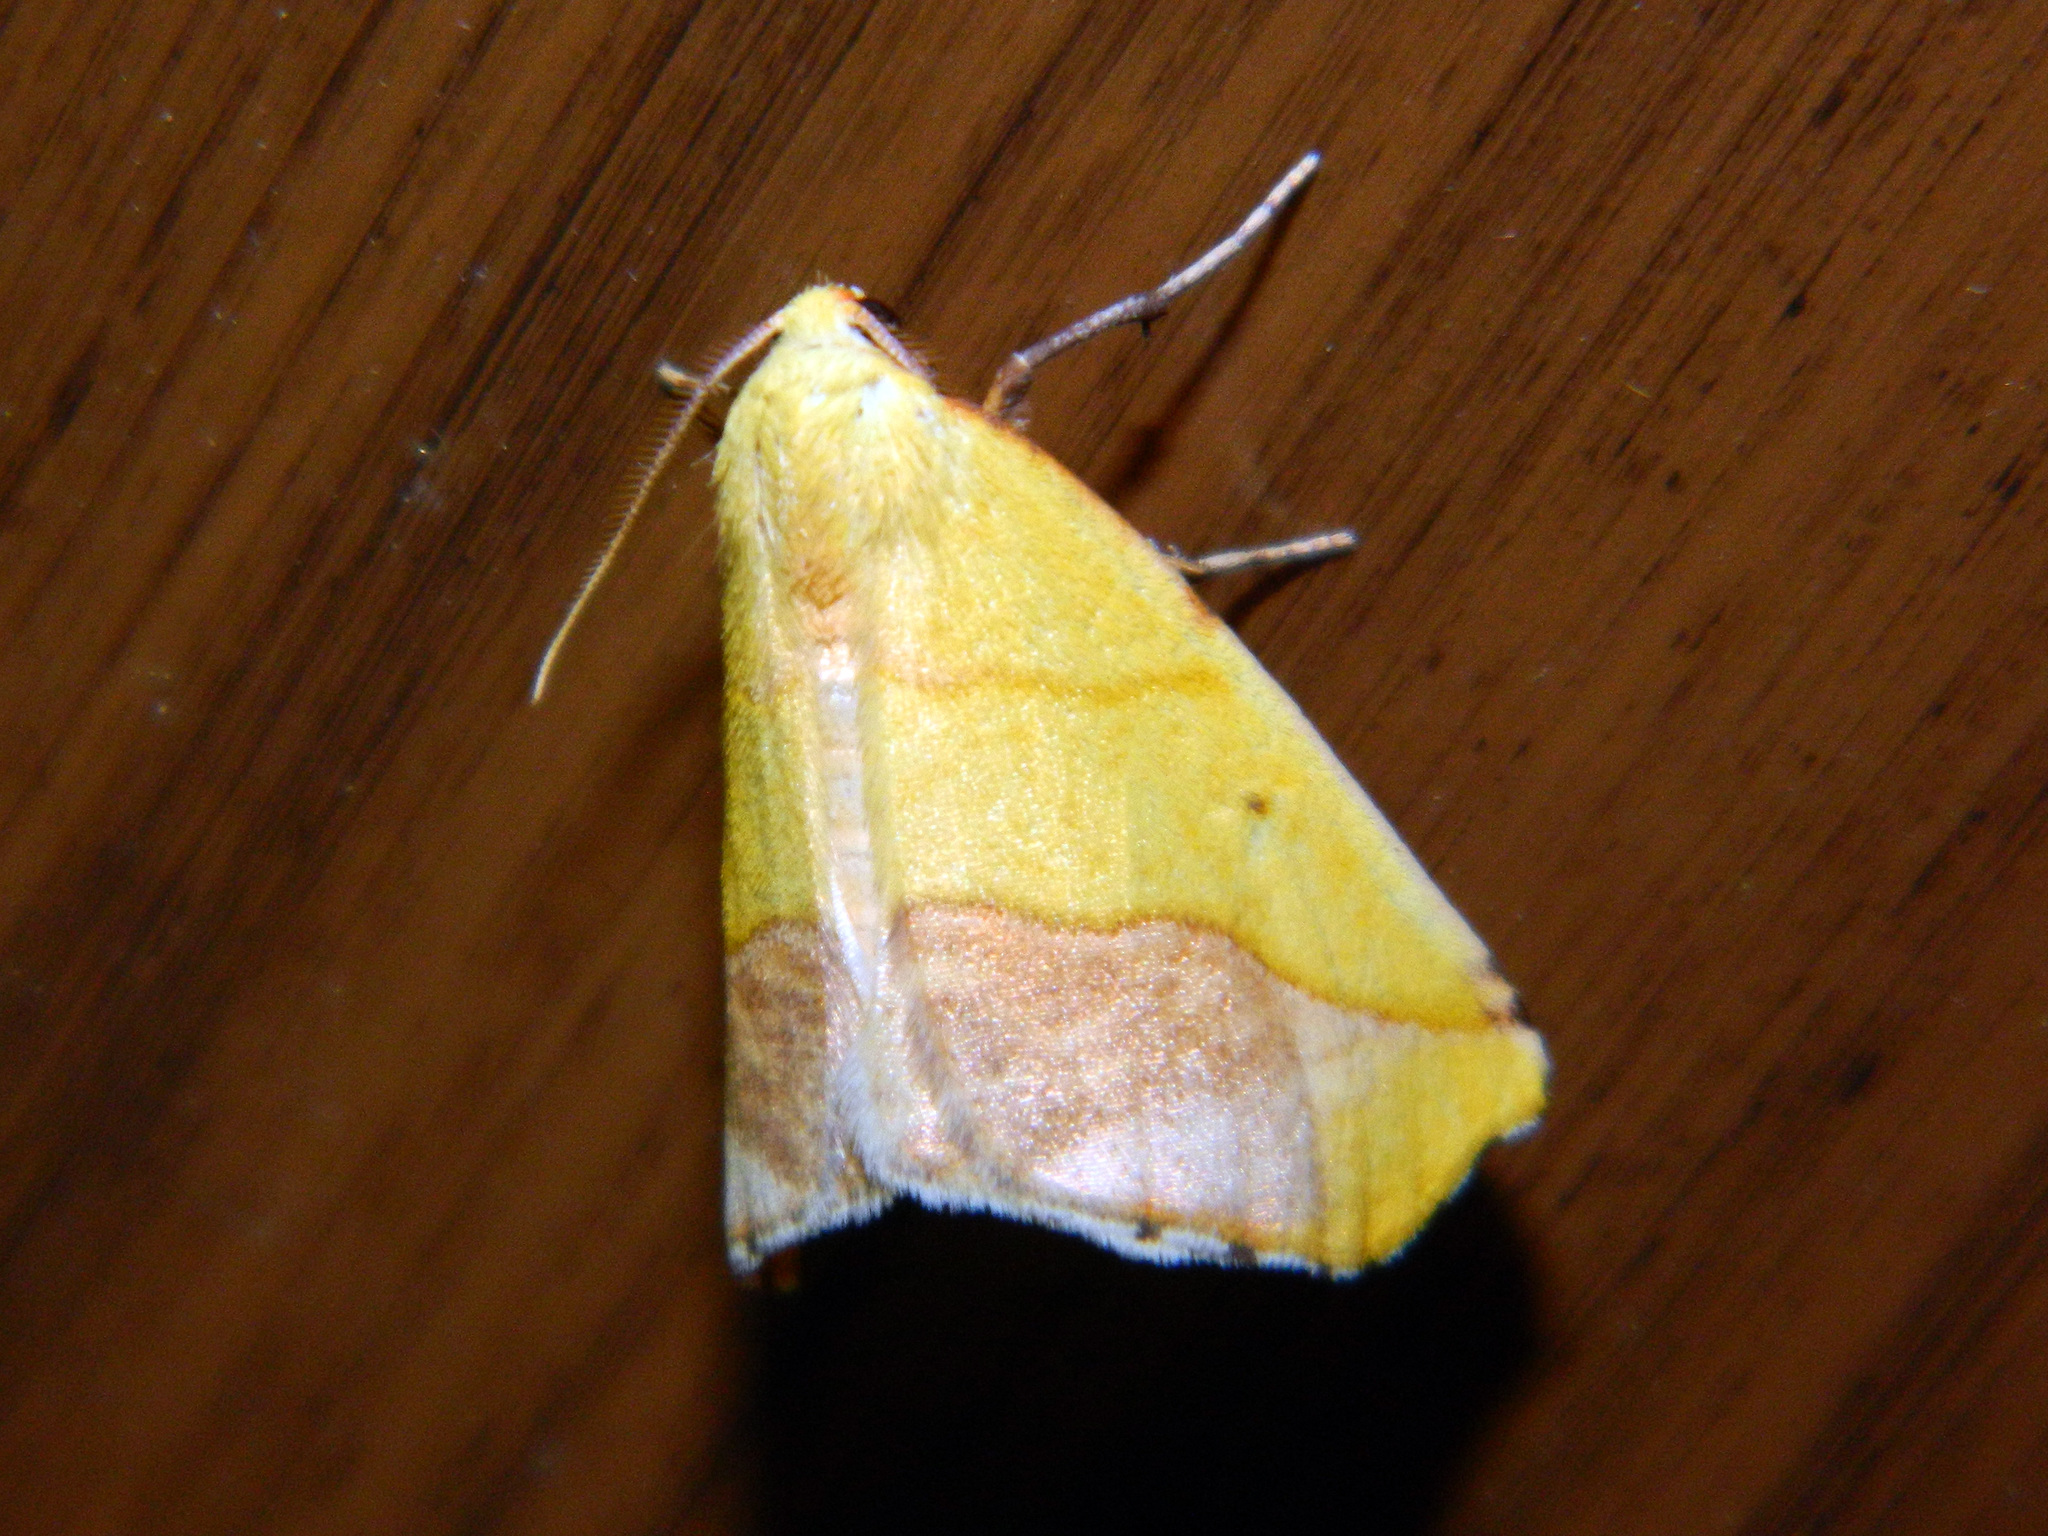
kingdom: Animalia
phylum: Arthropoda
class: Insecta
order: Lepidoptera
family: Geometridae
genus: Sicya
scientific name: Sicya macularia
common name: Sharp-lined yellow
